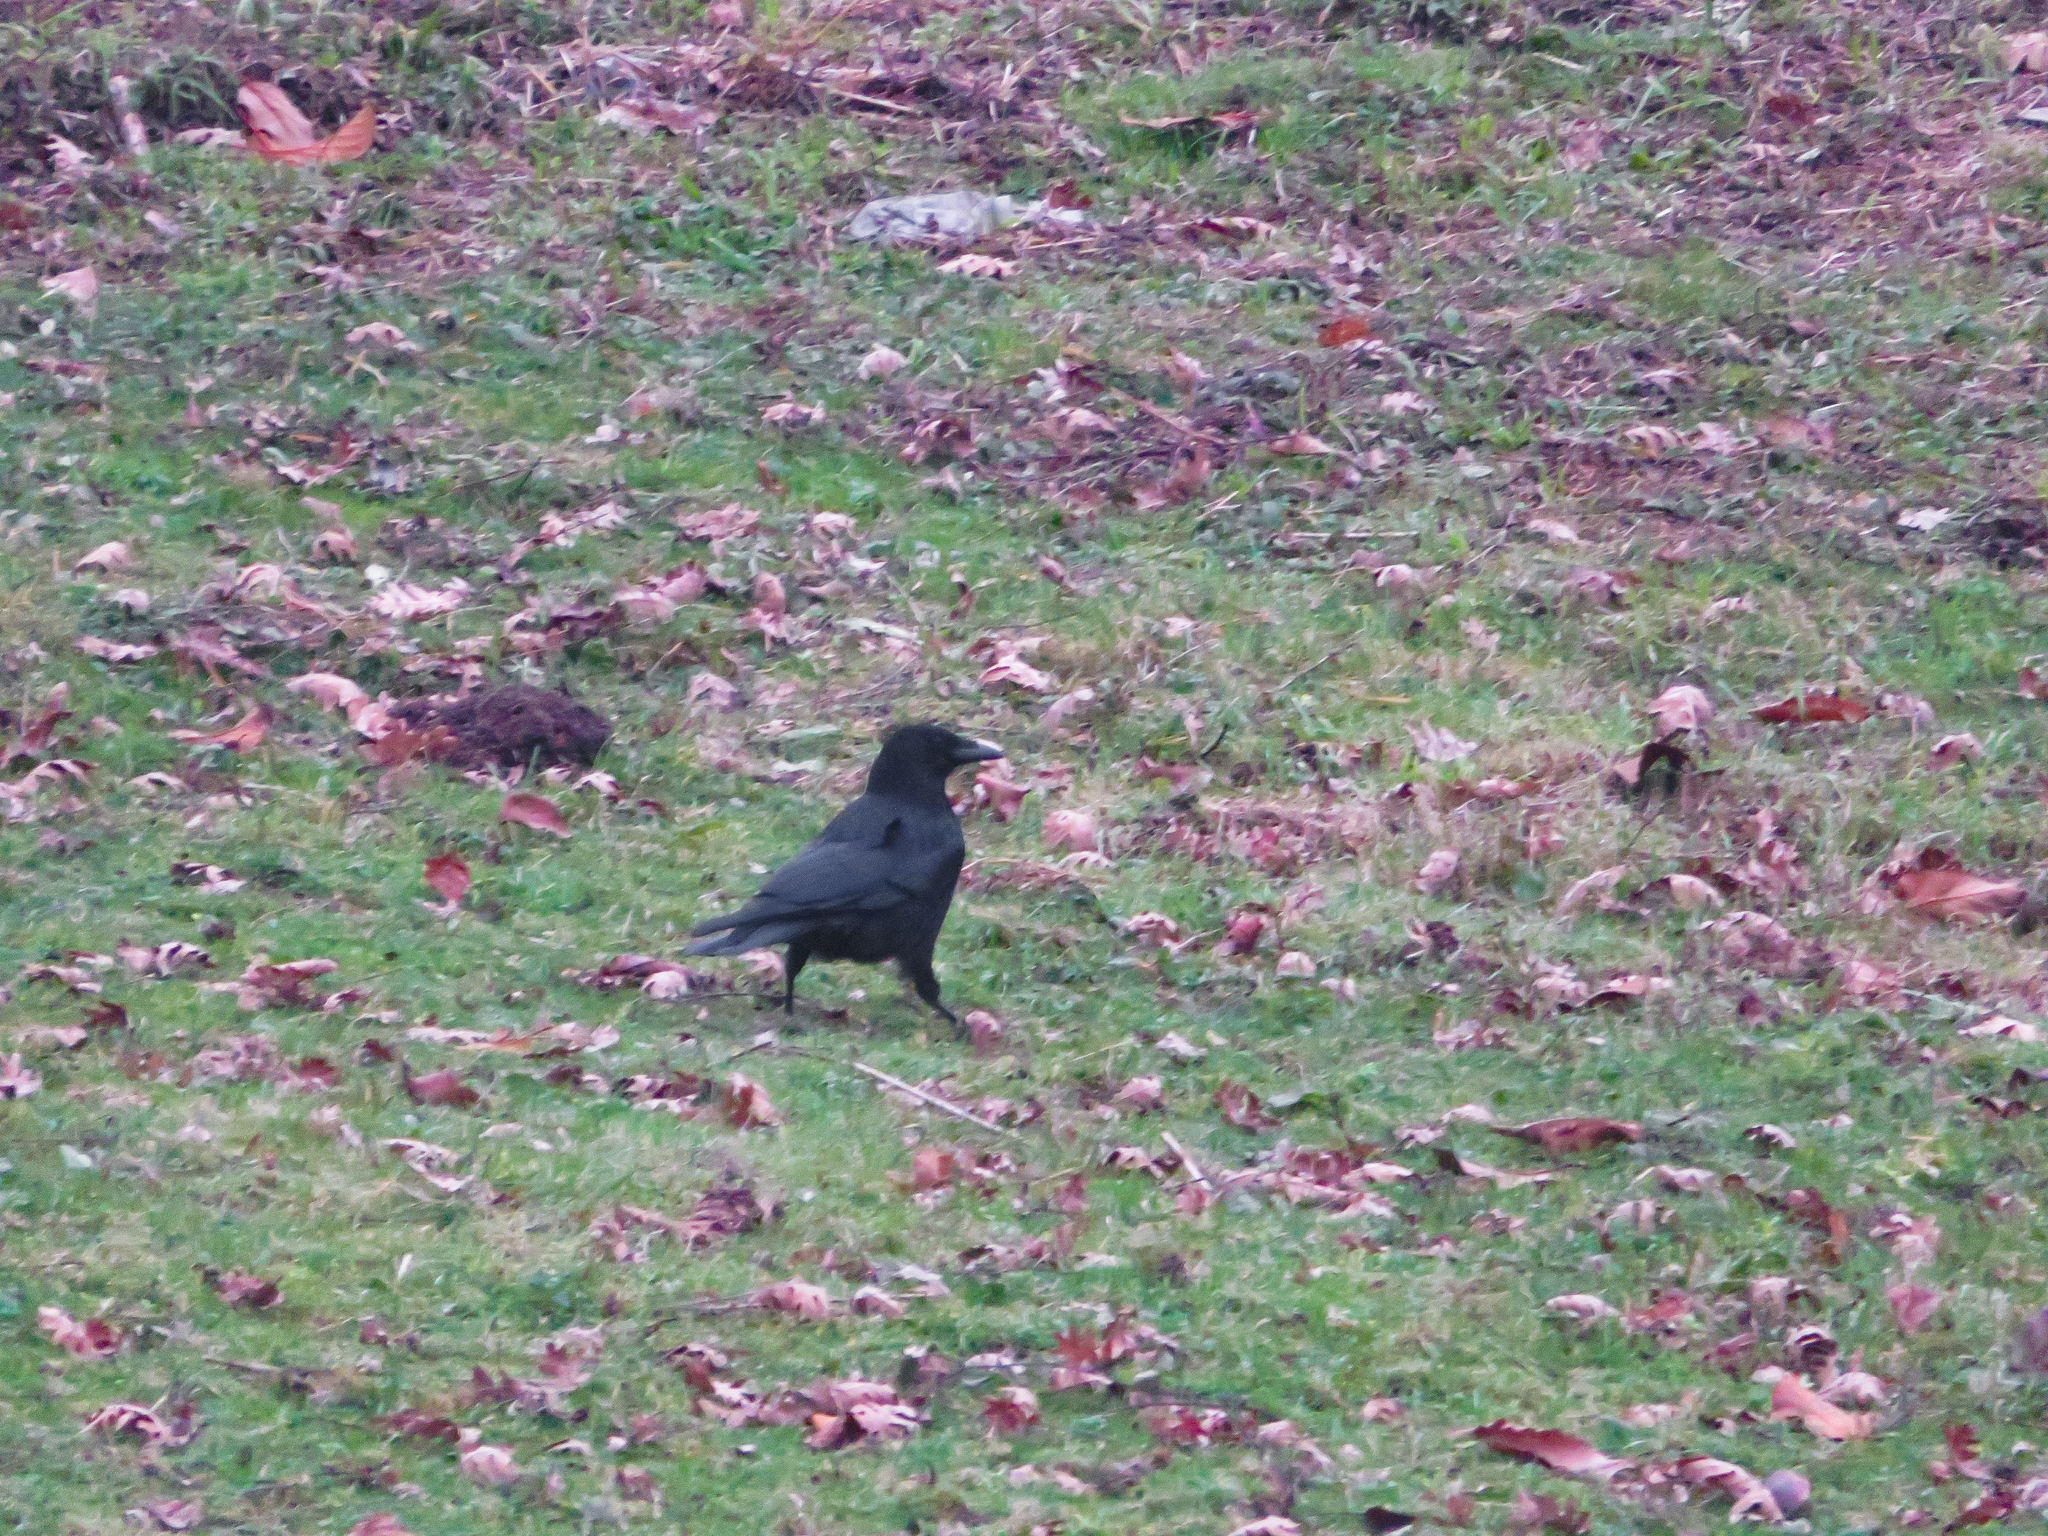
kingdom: Animalia
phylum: Chordata
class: Aves
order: Passeriformes
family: Corvidae
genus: Corvus
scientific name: Corvus corone
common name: Carrion crow
